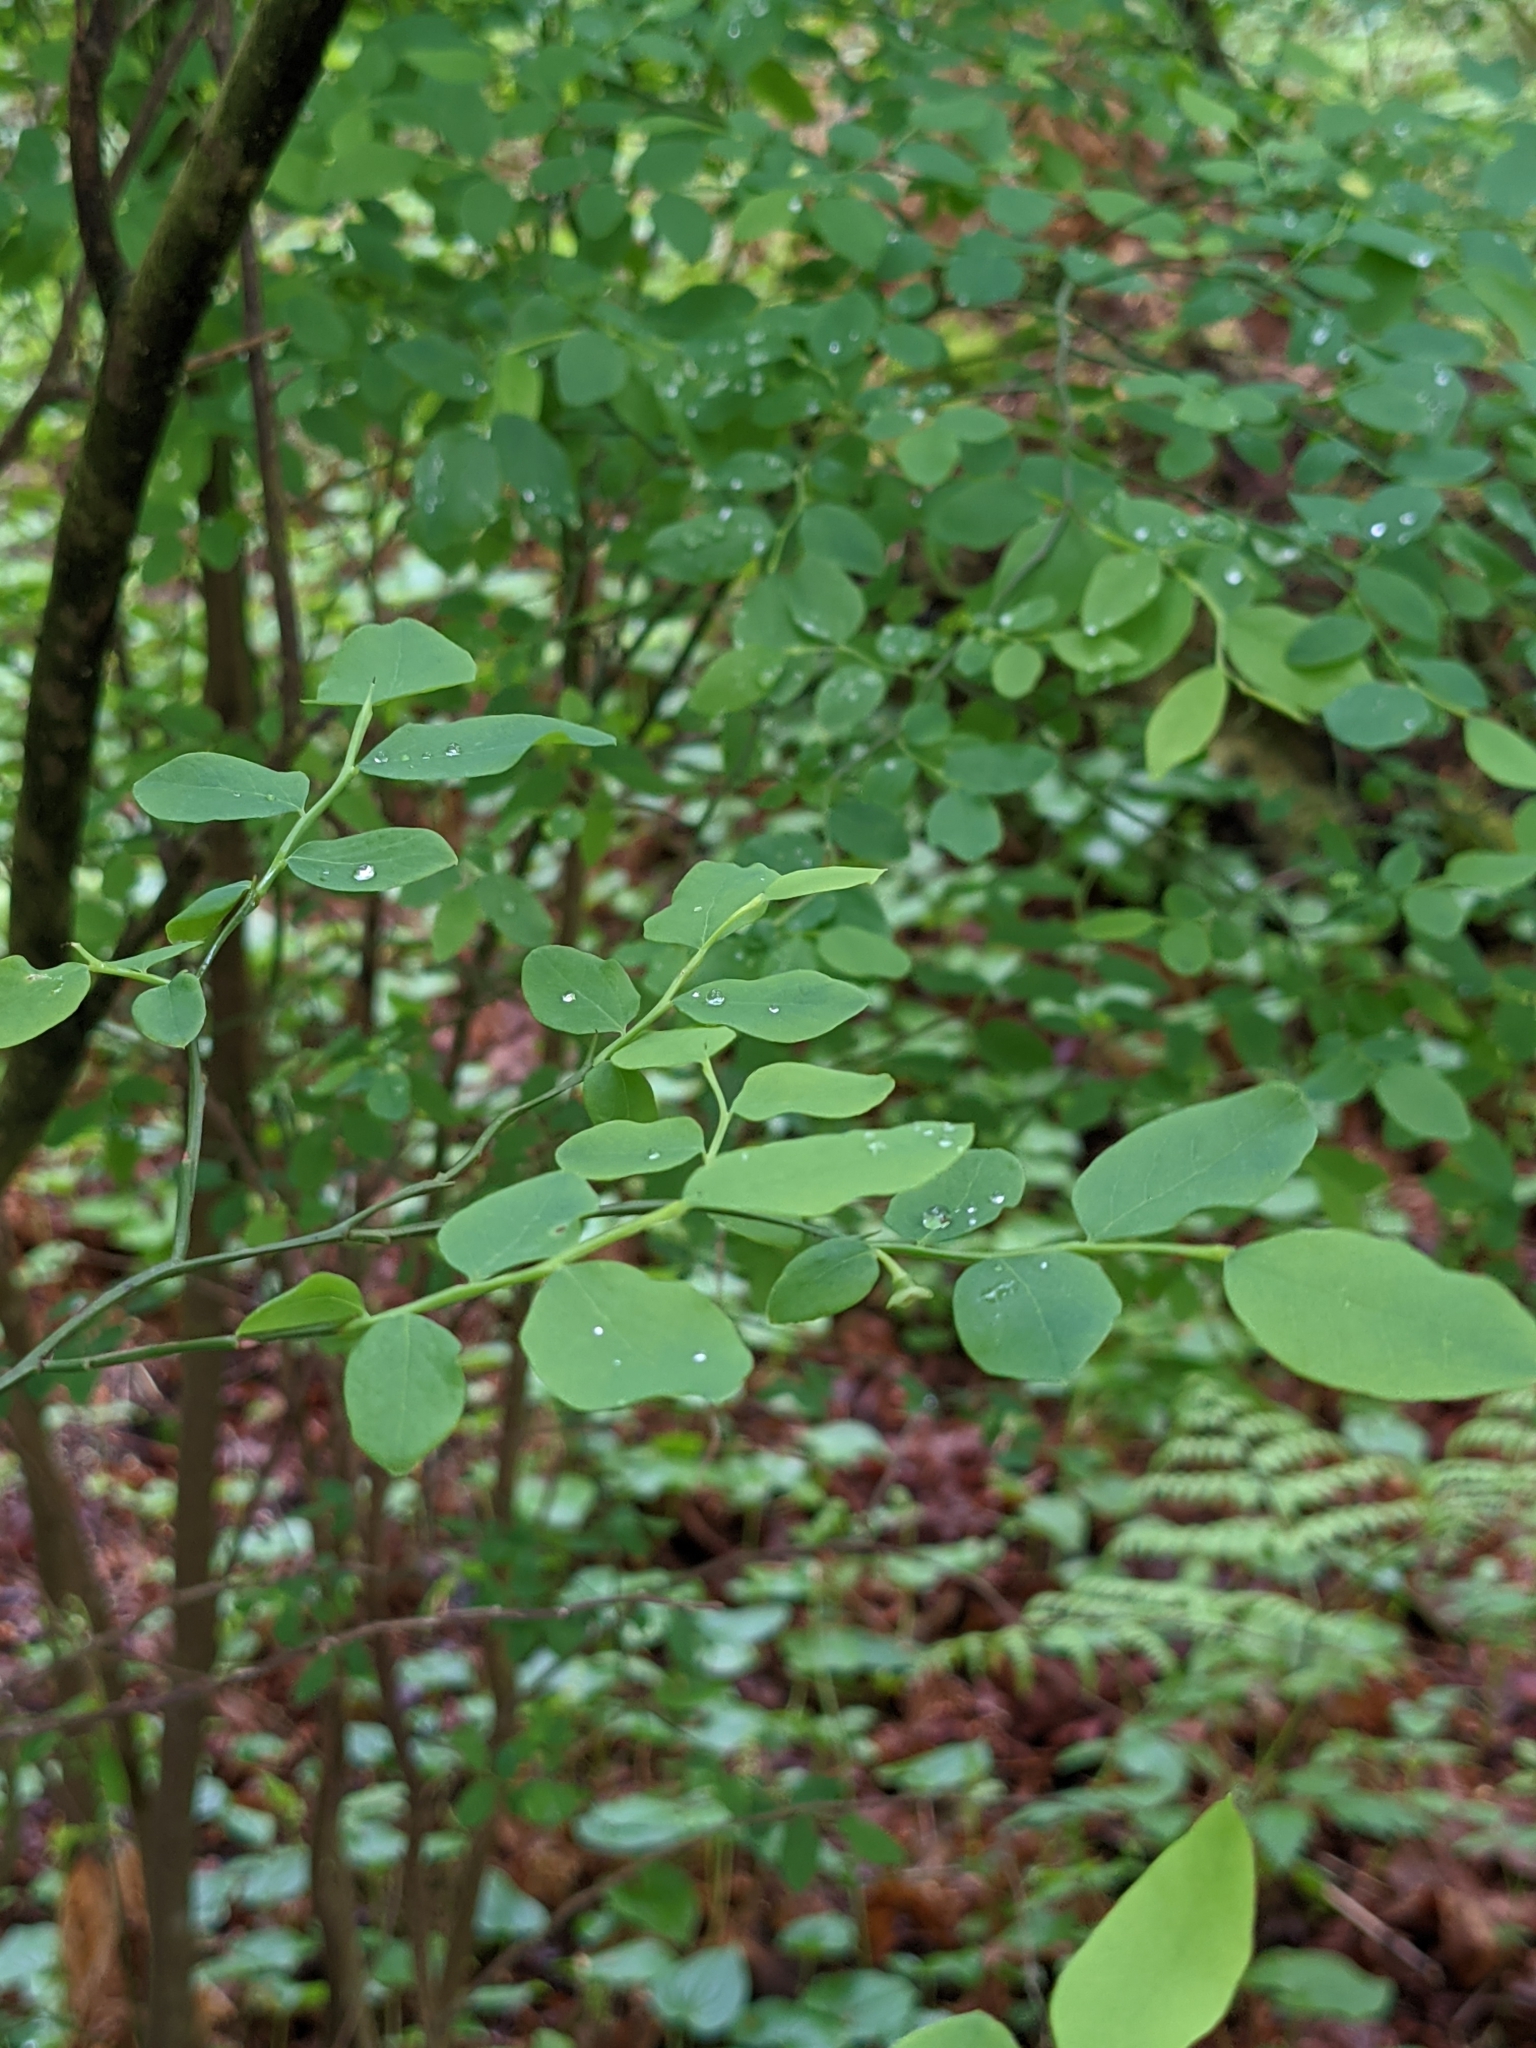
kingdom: Plantae
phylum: Tracheophyta
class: Magnoliopsida
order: Ericales
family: Ericaceae
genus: Vaccinium
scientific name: Vaccinium parvifolium
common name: Red-huckleberry
